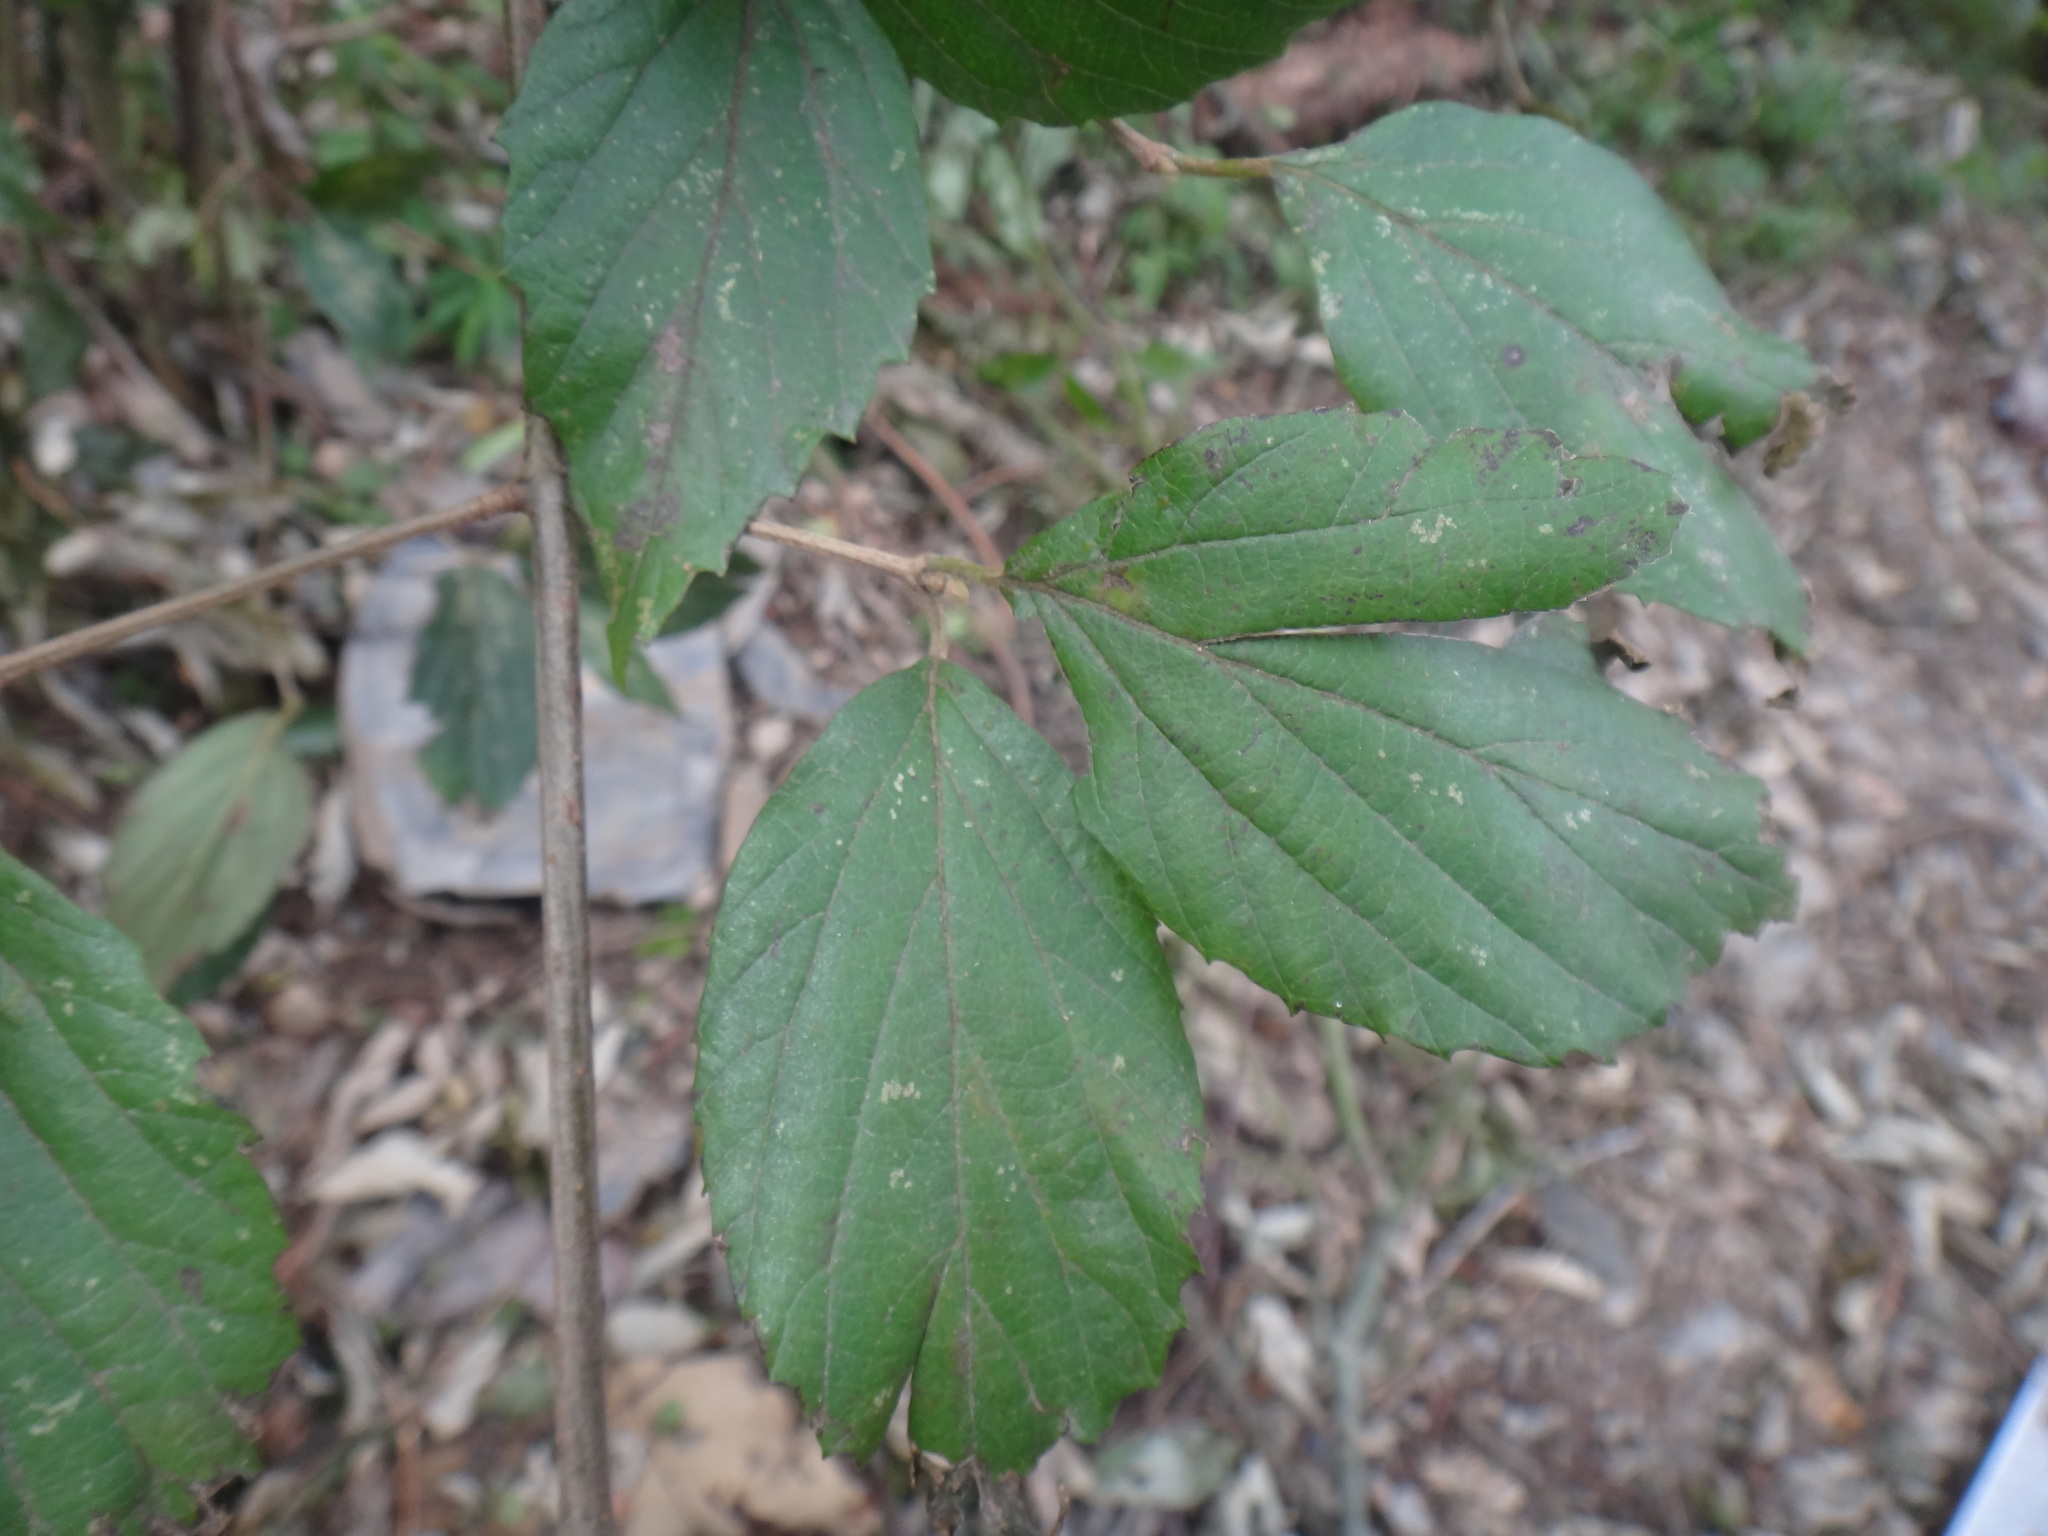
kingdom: Plantae
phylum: Tracheophyta
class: Magnoliopsida
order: Dipsacales
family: Viburnaceae
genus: Viburnum
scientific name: Viburnum luzonicum
